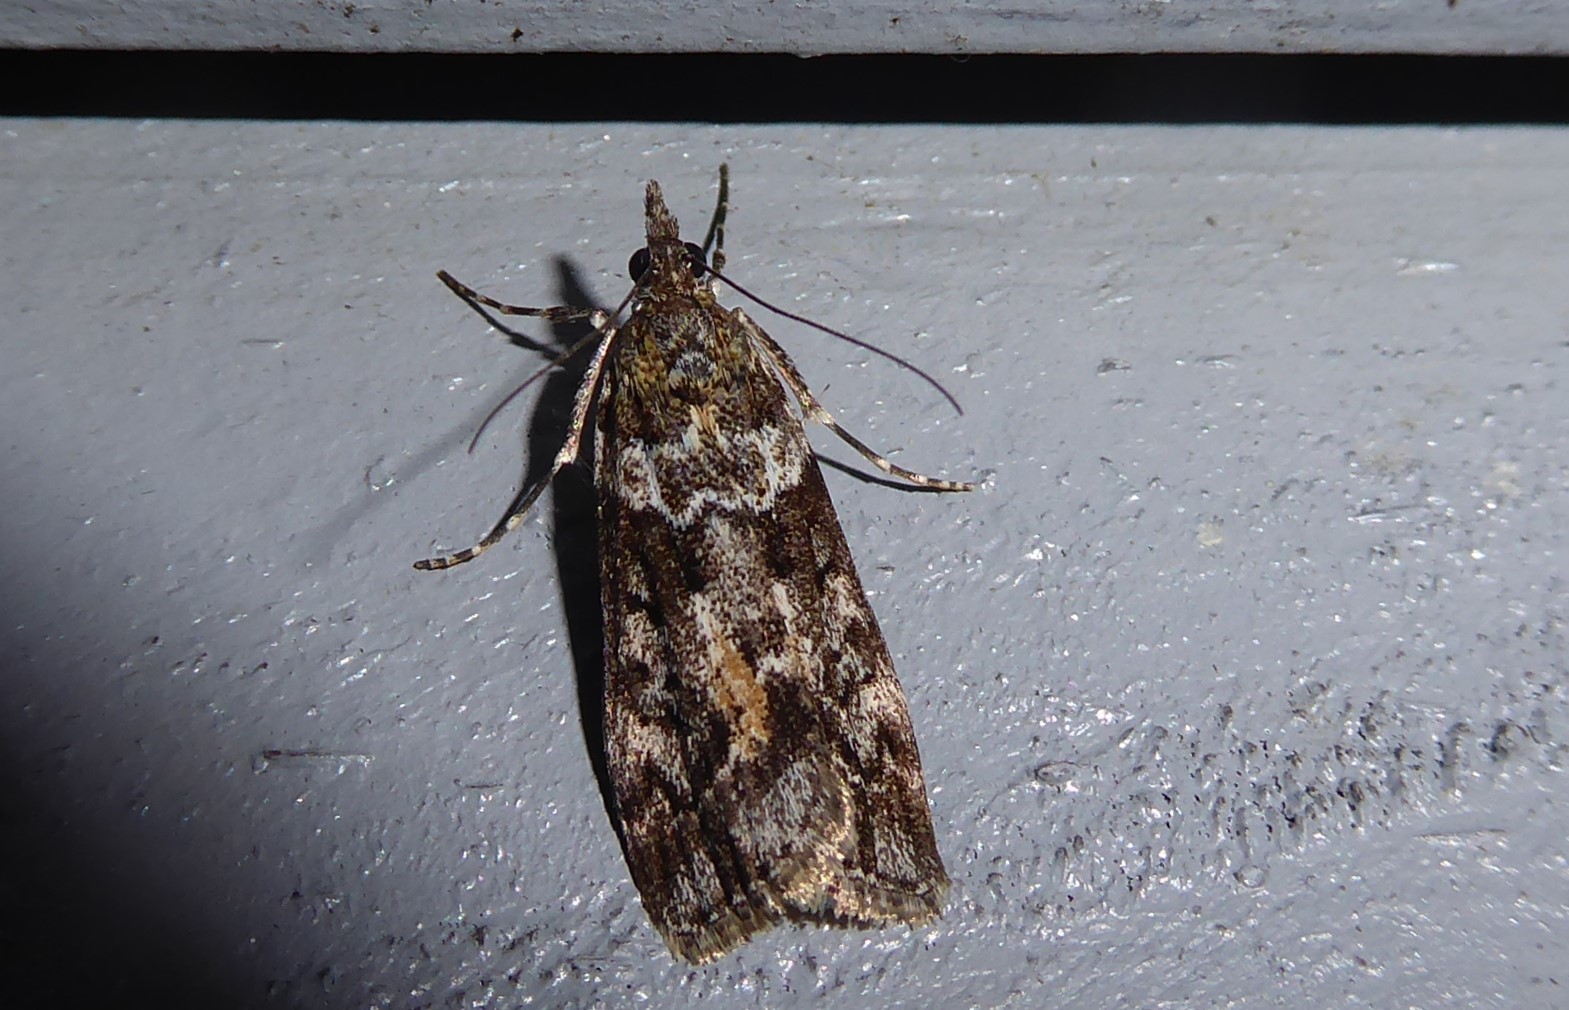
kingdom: Animalia
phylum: Arthropoda
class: Insecta
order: Lepidoptera
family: Crambidae
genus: Eudonia
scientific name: Eudonia submarginalis
